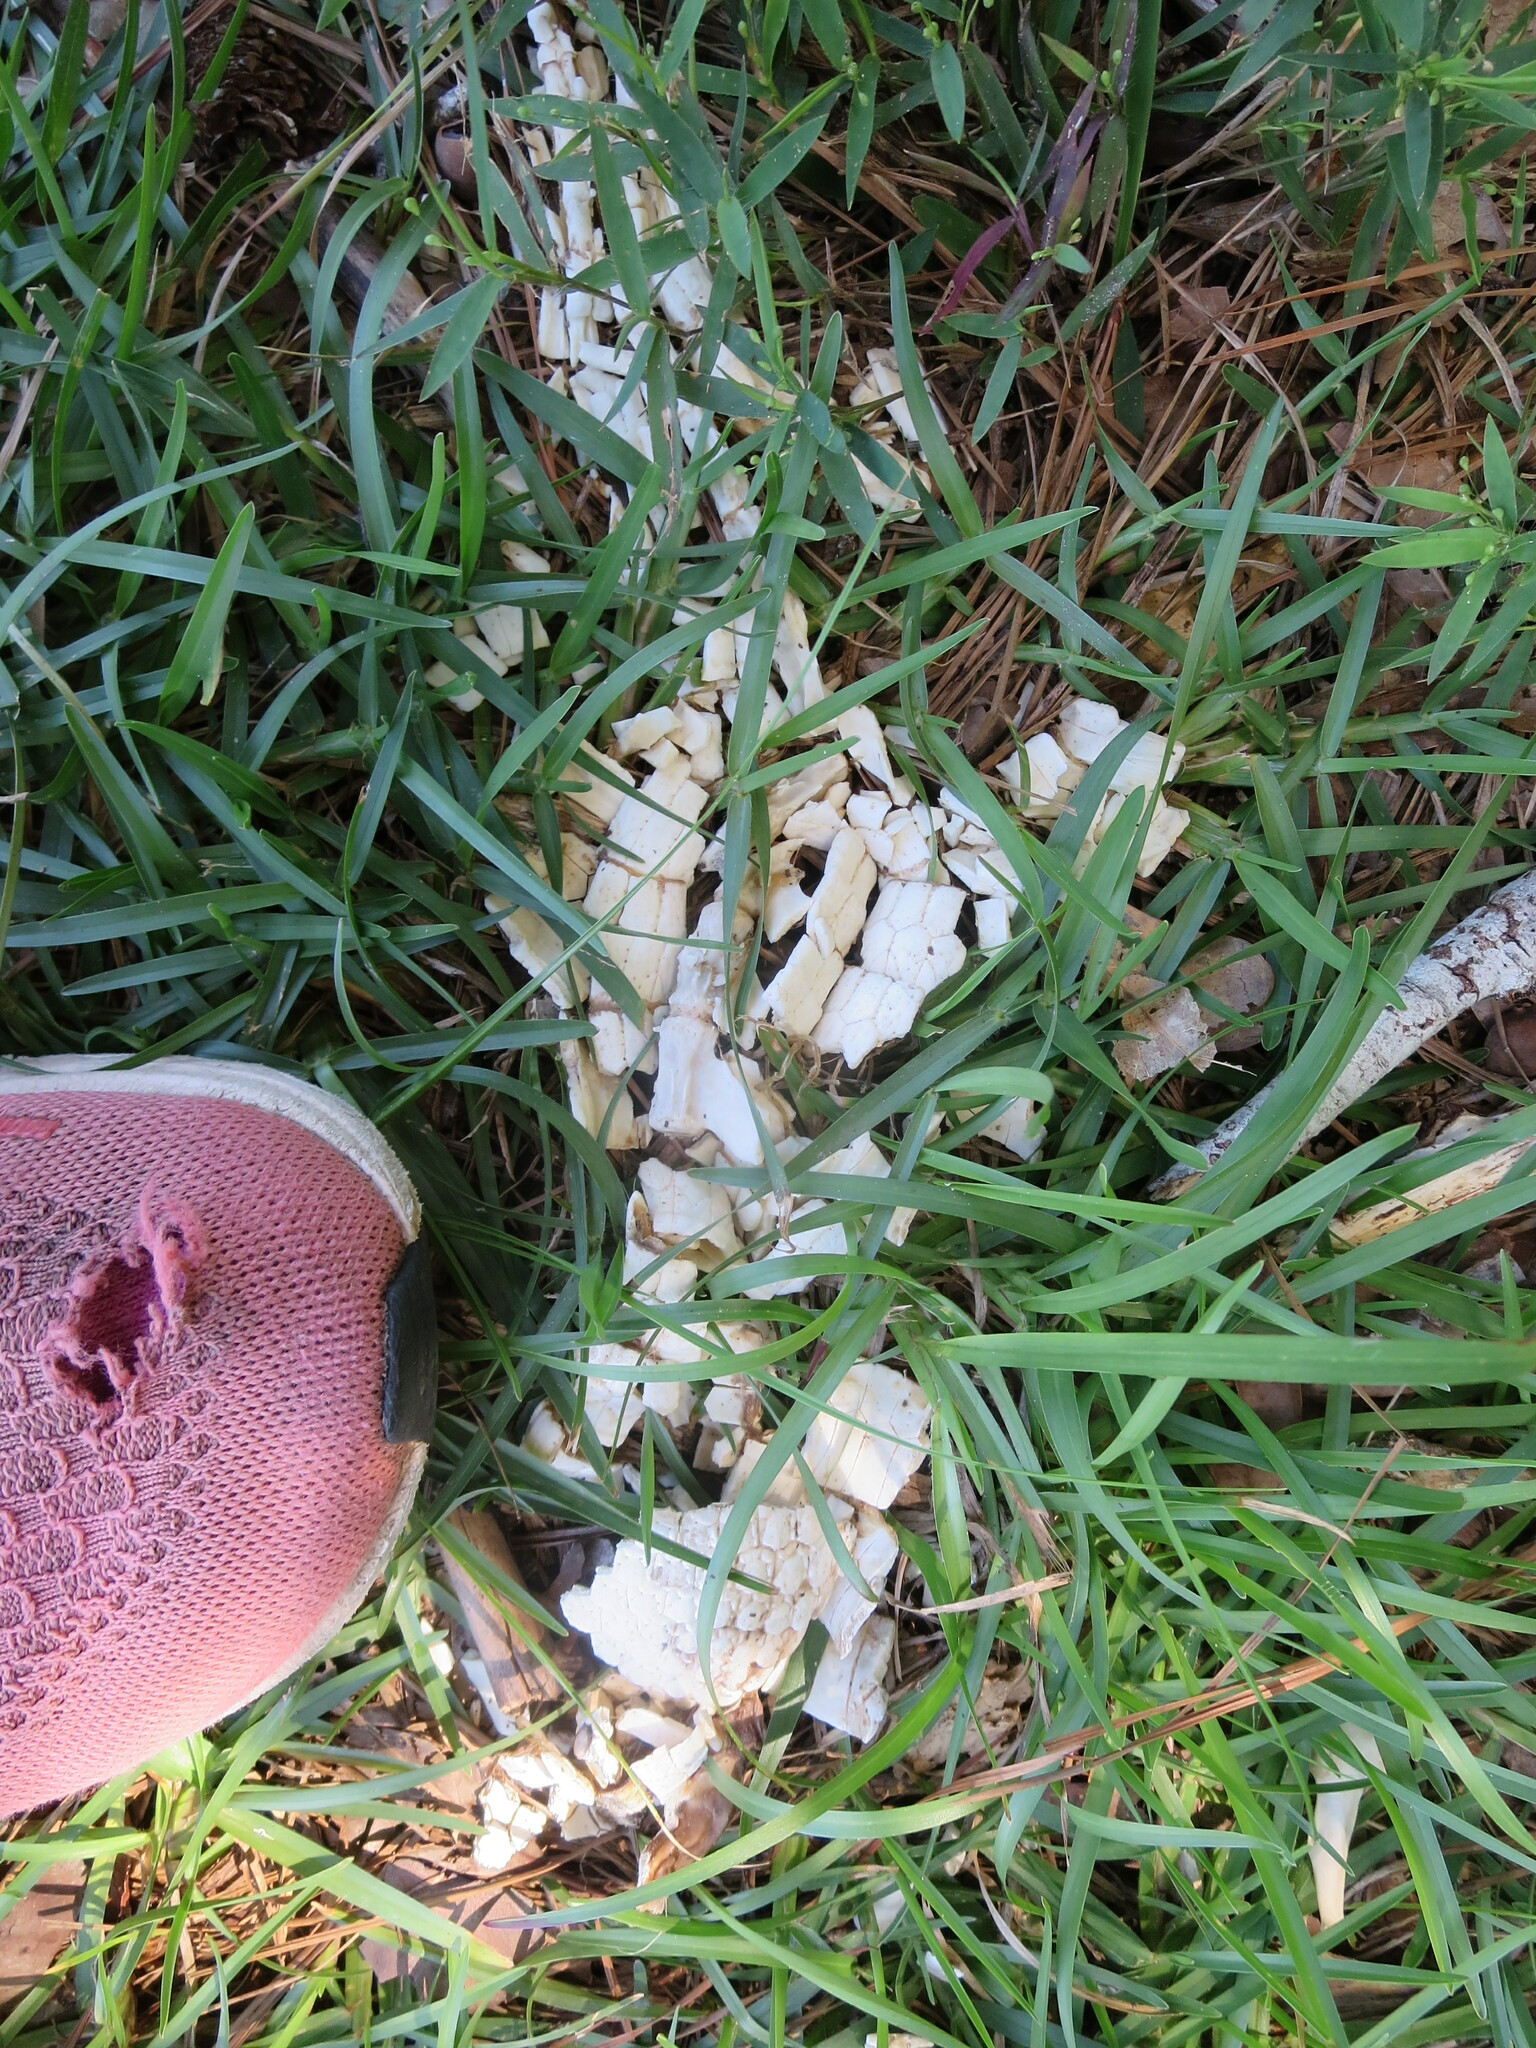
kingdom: Animalia
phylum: Chordata
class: Mammalia
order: Cingulata
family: Dasypodidae
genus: Dasypus
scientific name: Dasypus novemcinctus
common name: Nine-banded armadillo
